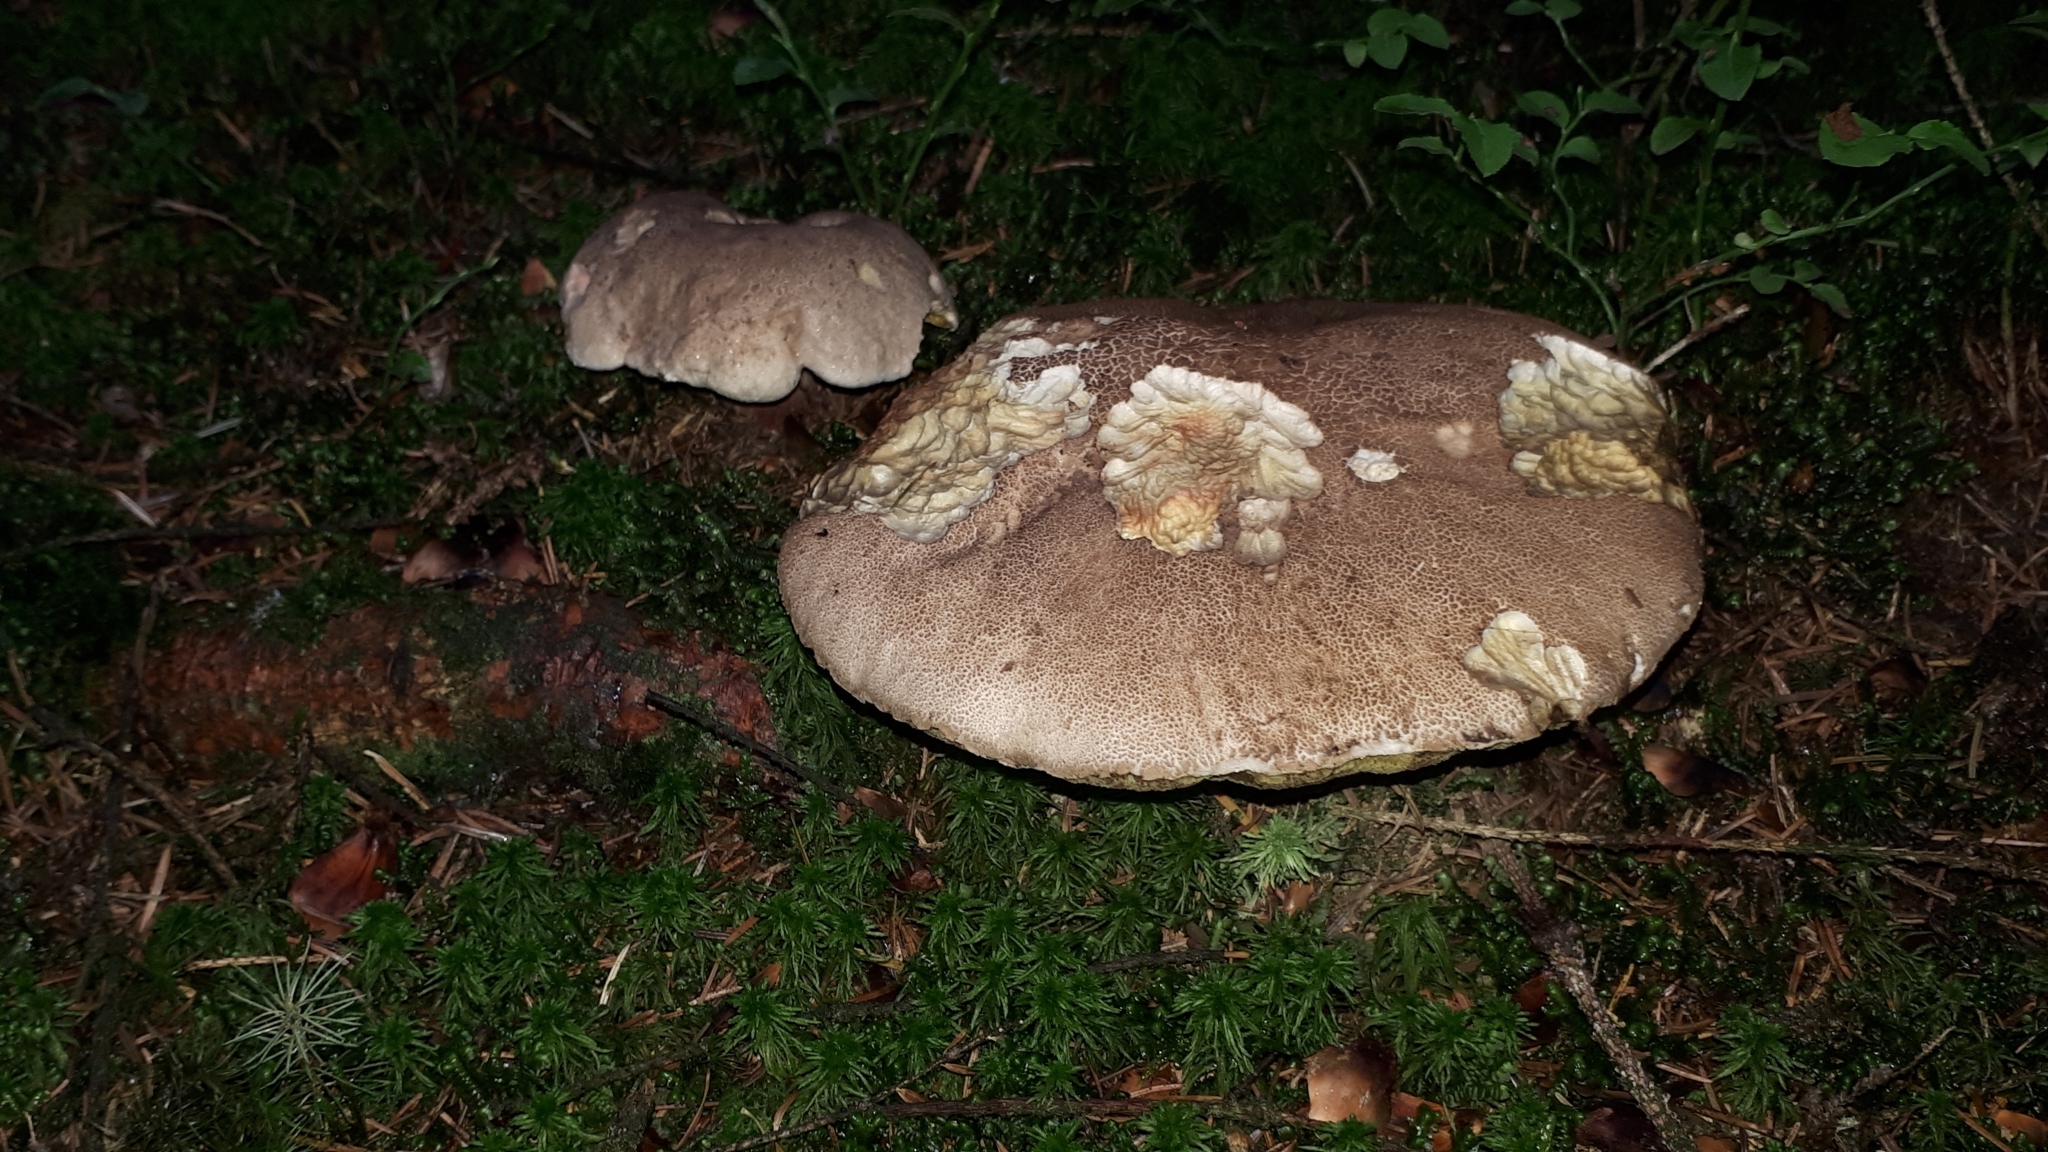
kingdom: Fungi
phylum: Basidiomycota
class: Agaricomycetes
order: Boletales
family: Boletaceae
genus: Caloboletus
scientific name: Caloboletus calopus
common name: Bitter beech bolete
